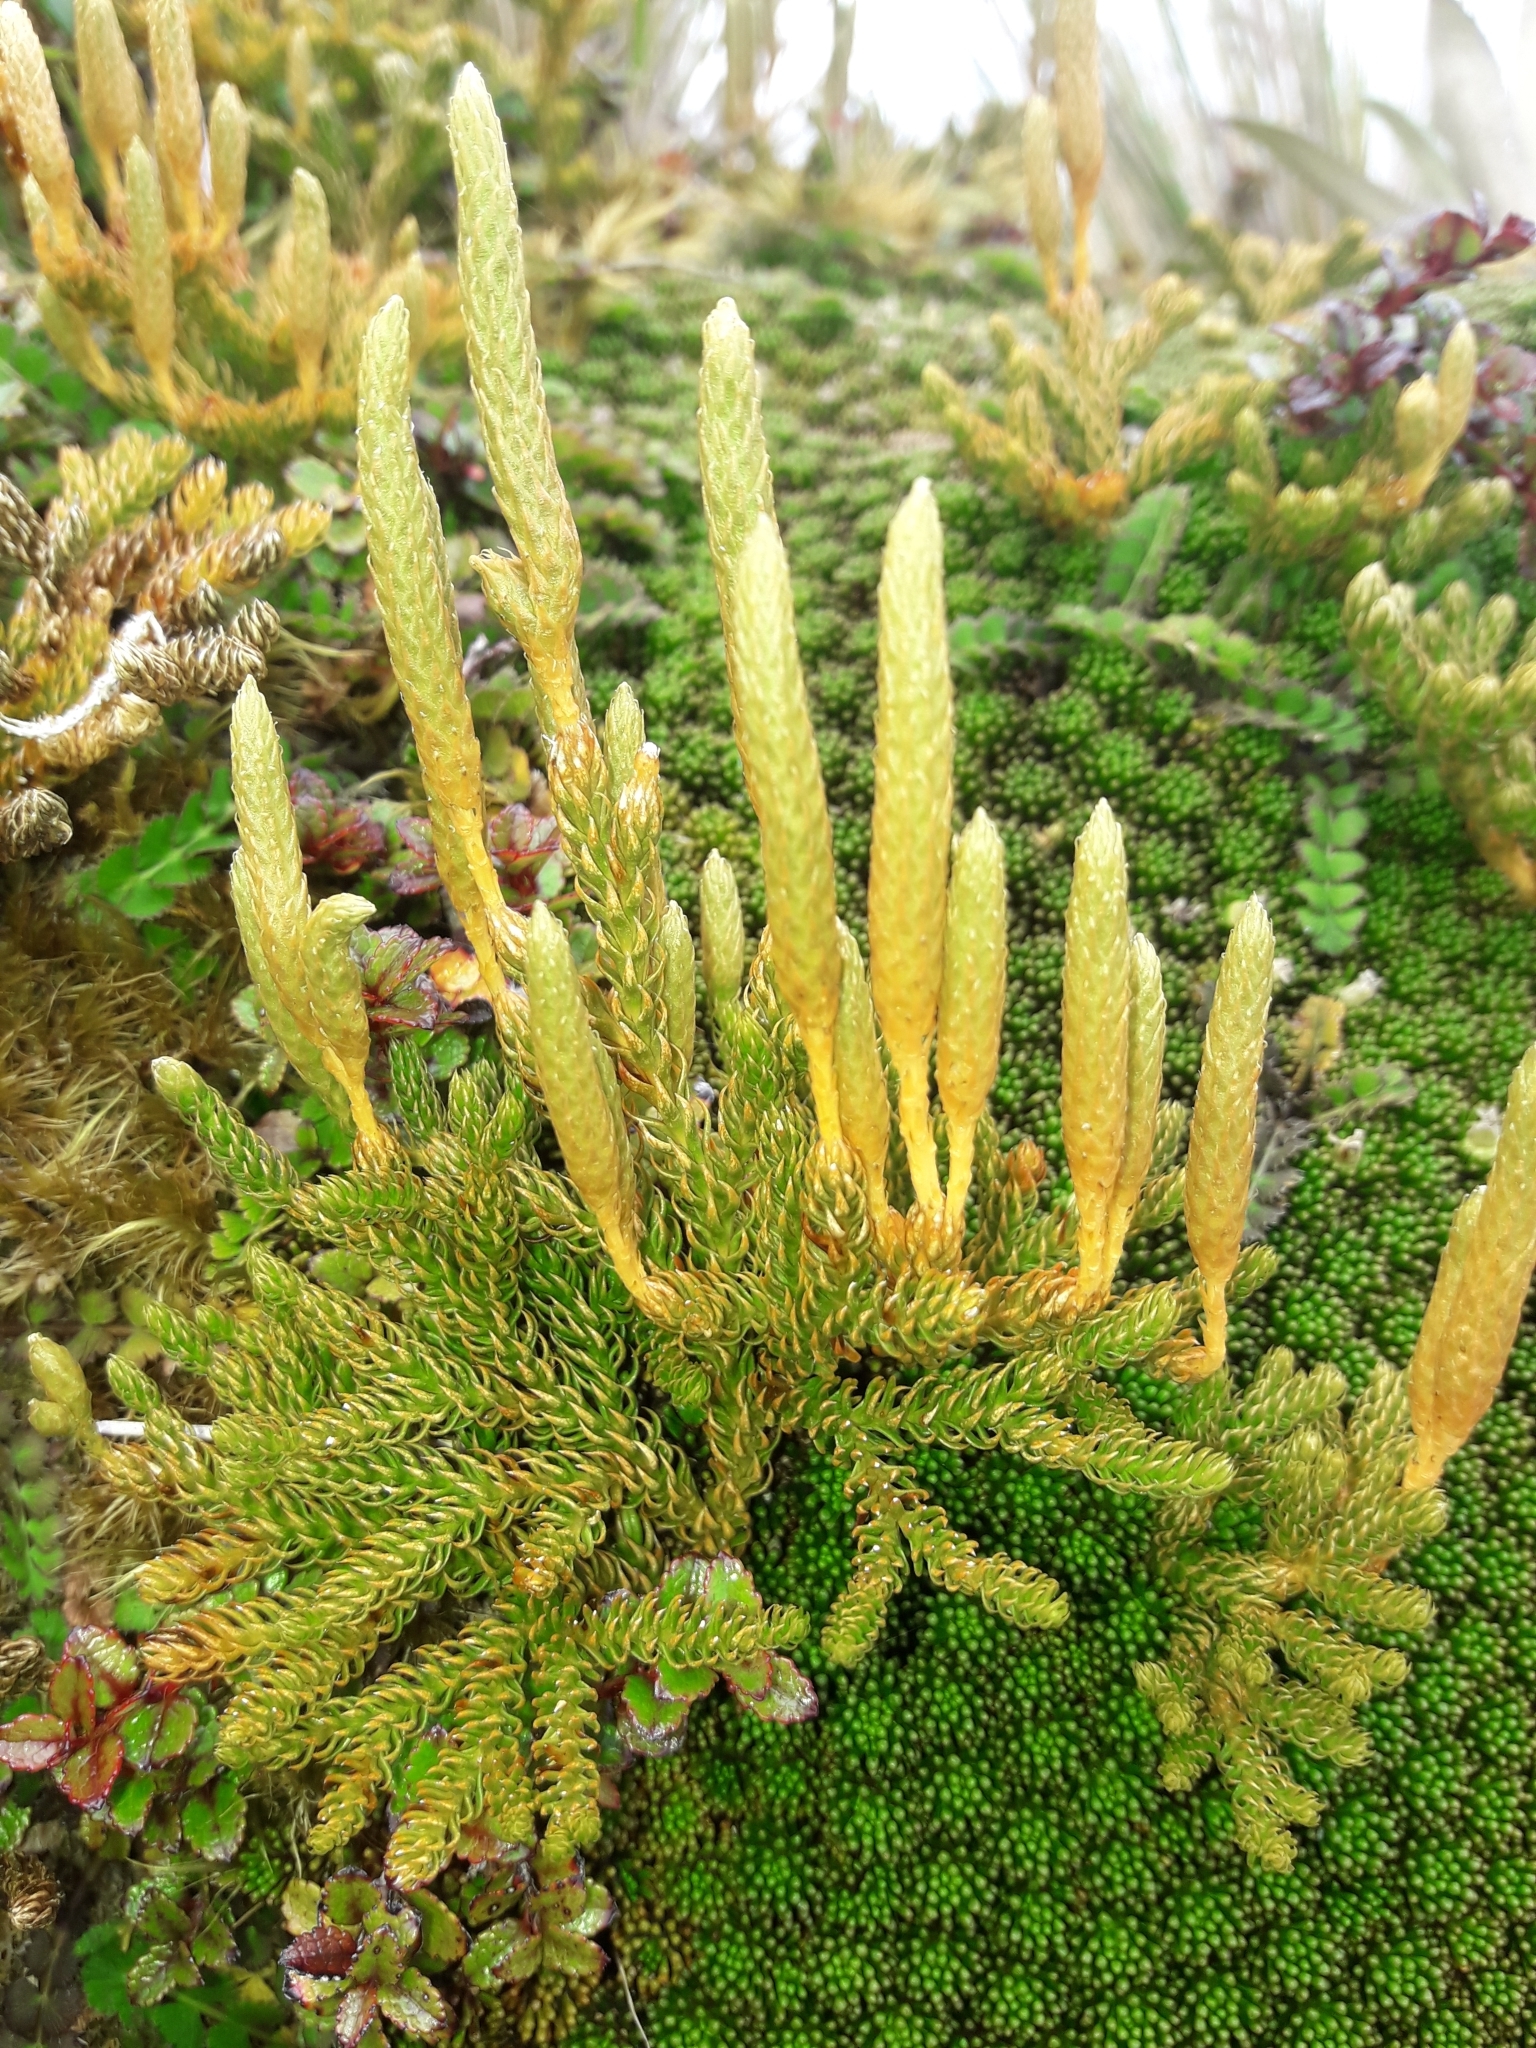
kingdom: Plantae
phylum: Tracheophyta
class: Lycopodiopsida
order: Lycopodiales
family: Lycopodiaceae
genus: Austrolycopodium
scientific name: Austrolycopodium fastigiatum
